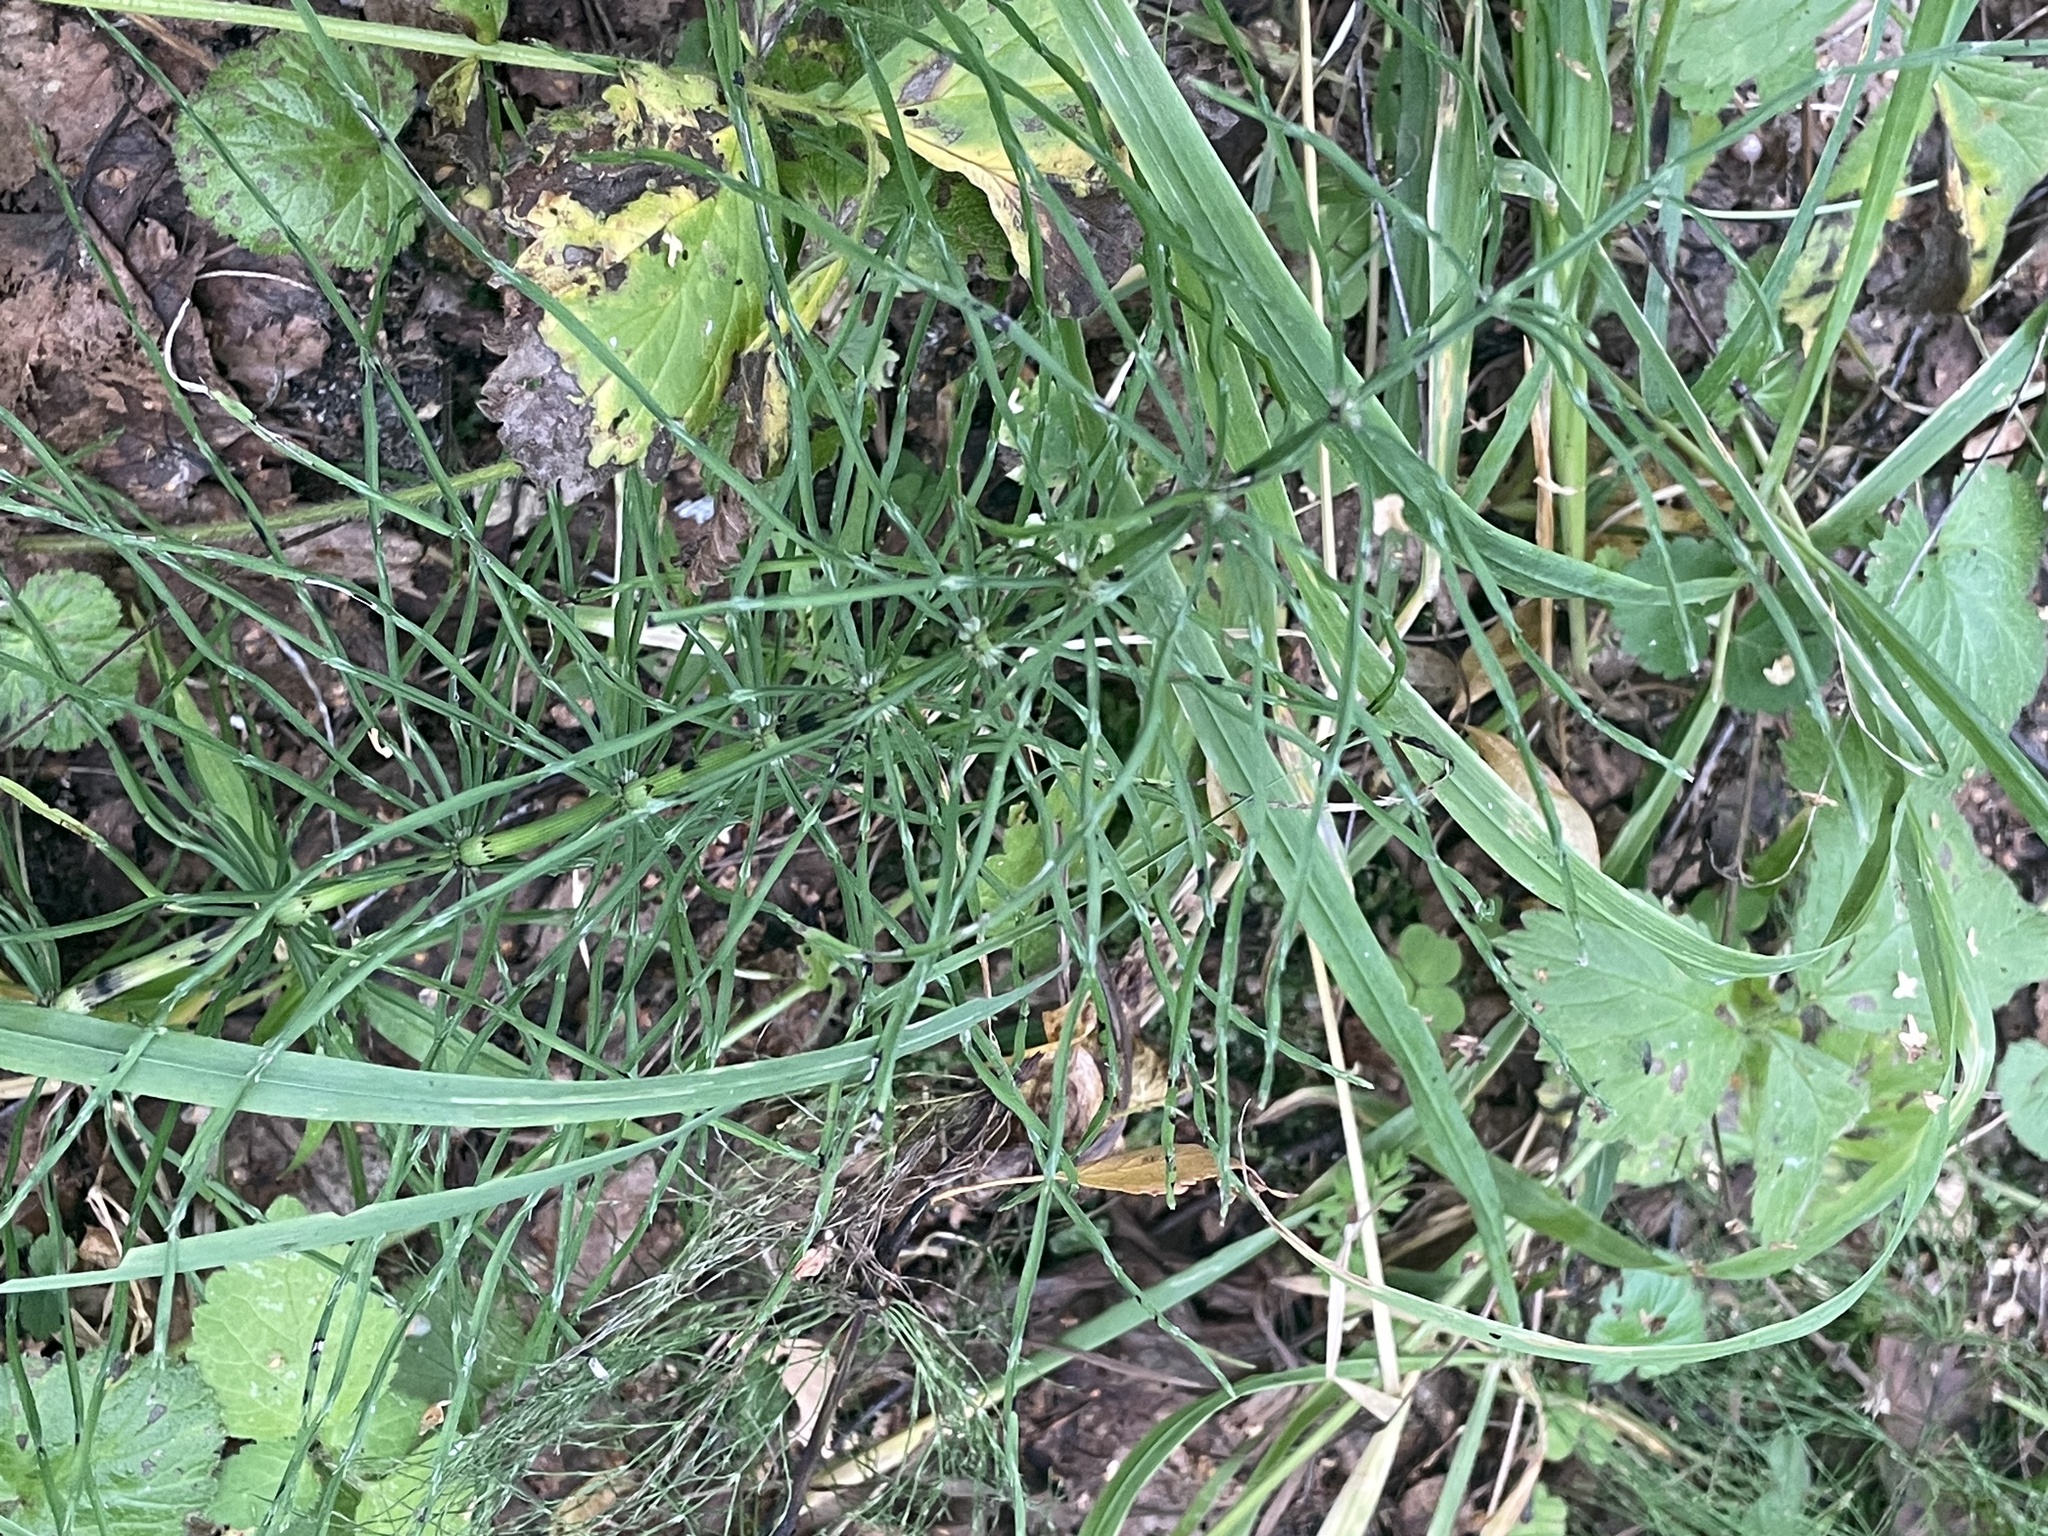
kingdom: Plantae
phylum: Tracheophyta
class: Polypodiopsida
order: Equisetales
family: Equisetaceae
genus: Equisetum
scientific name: Equisetum arvense
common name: Field horsetail
